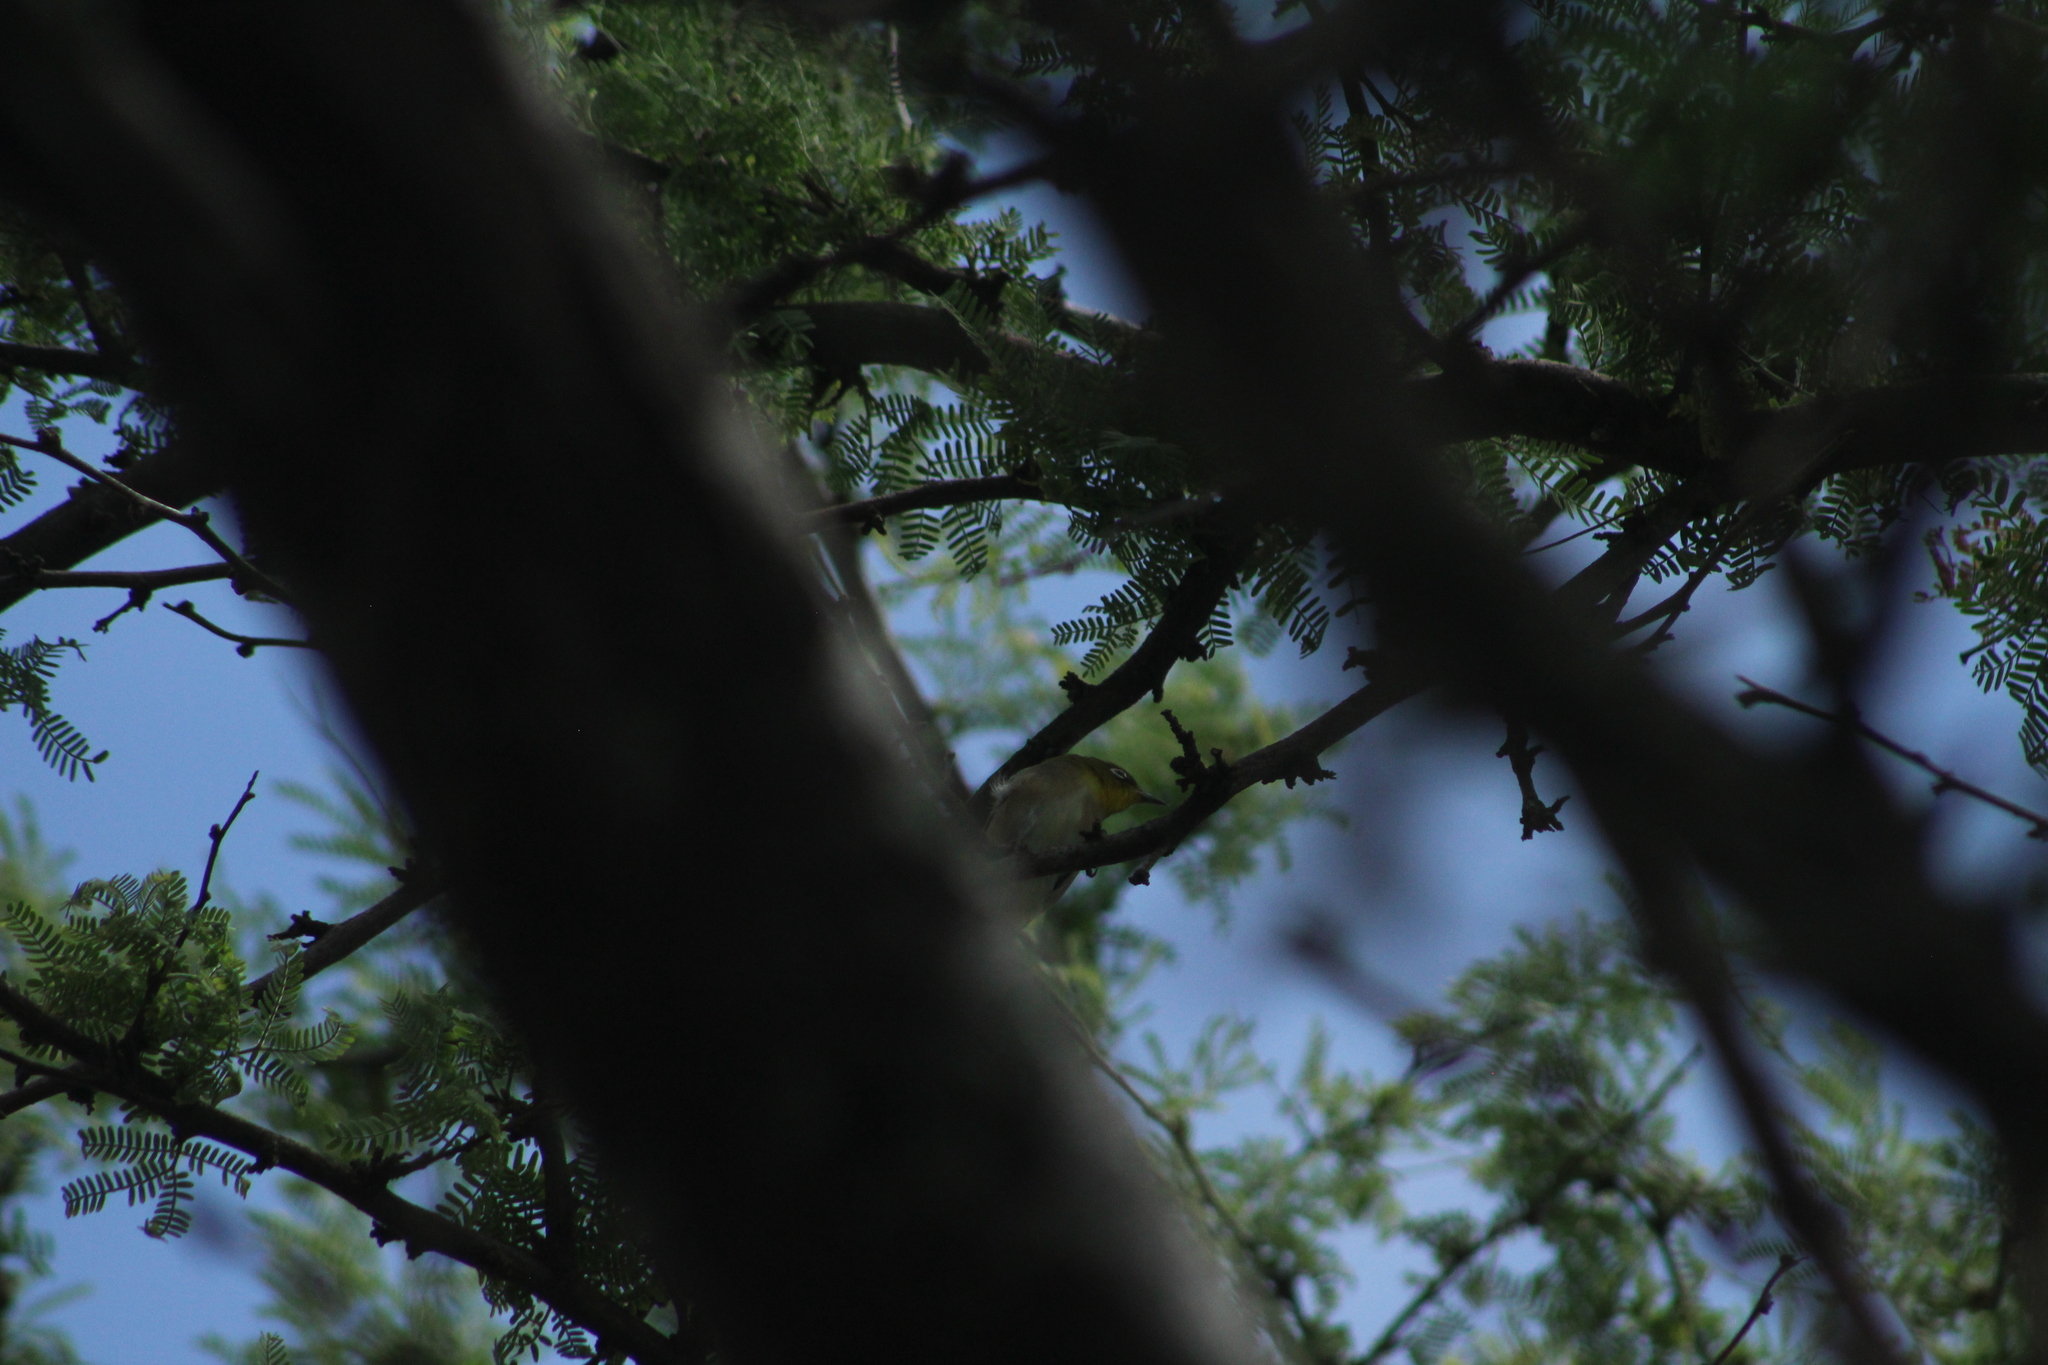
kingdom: Animalia
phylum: Chordata
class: Aves
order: Passeriformes
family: Zosteropidae
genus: Zosterops
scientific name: Zosterops japonicus
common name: Japanese white-eye
